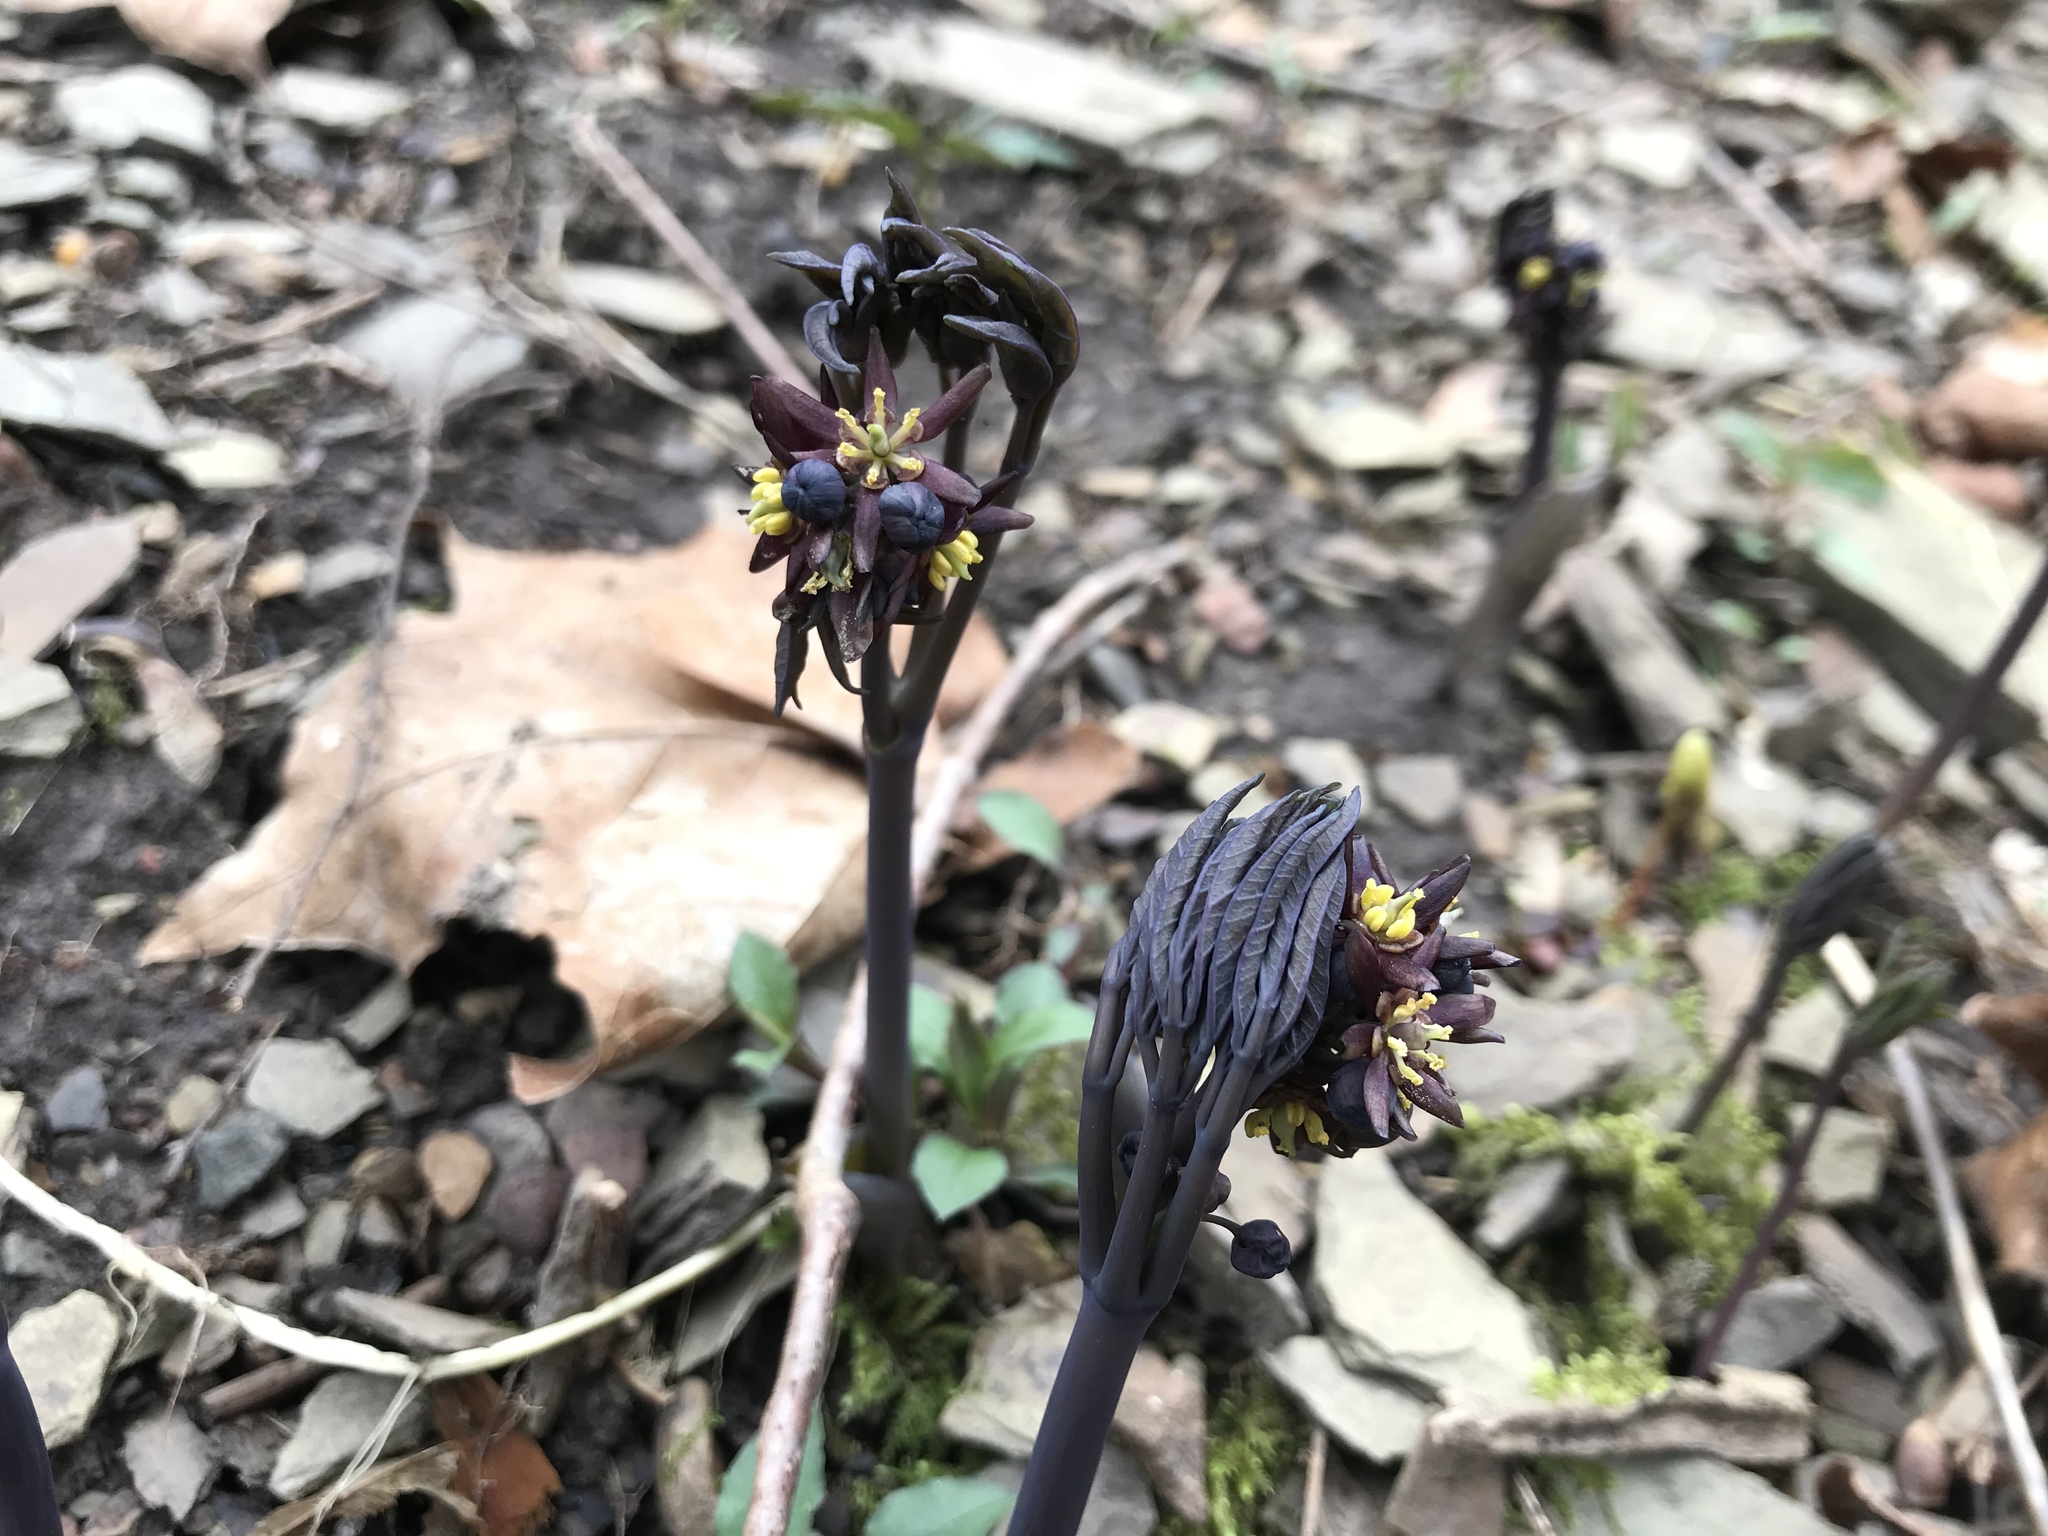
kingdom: Plantae
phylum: Tracheophyta
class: Magnoliopsida
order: Ranunculales
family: Berberidaceae
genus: Caulophyllum
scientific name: Caulophyllum giganteum
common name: Blue cohosh
